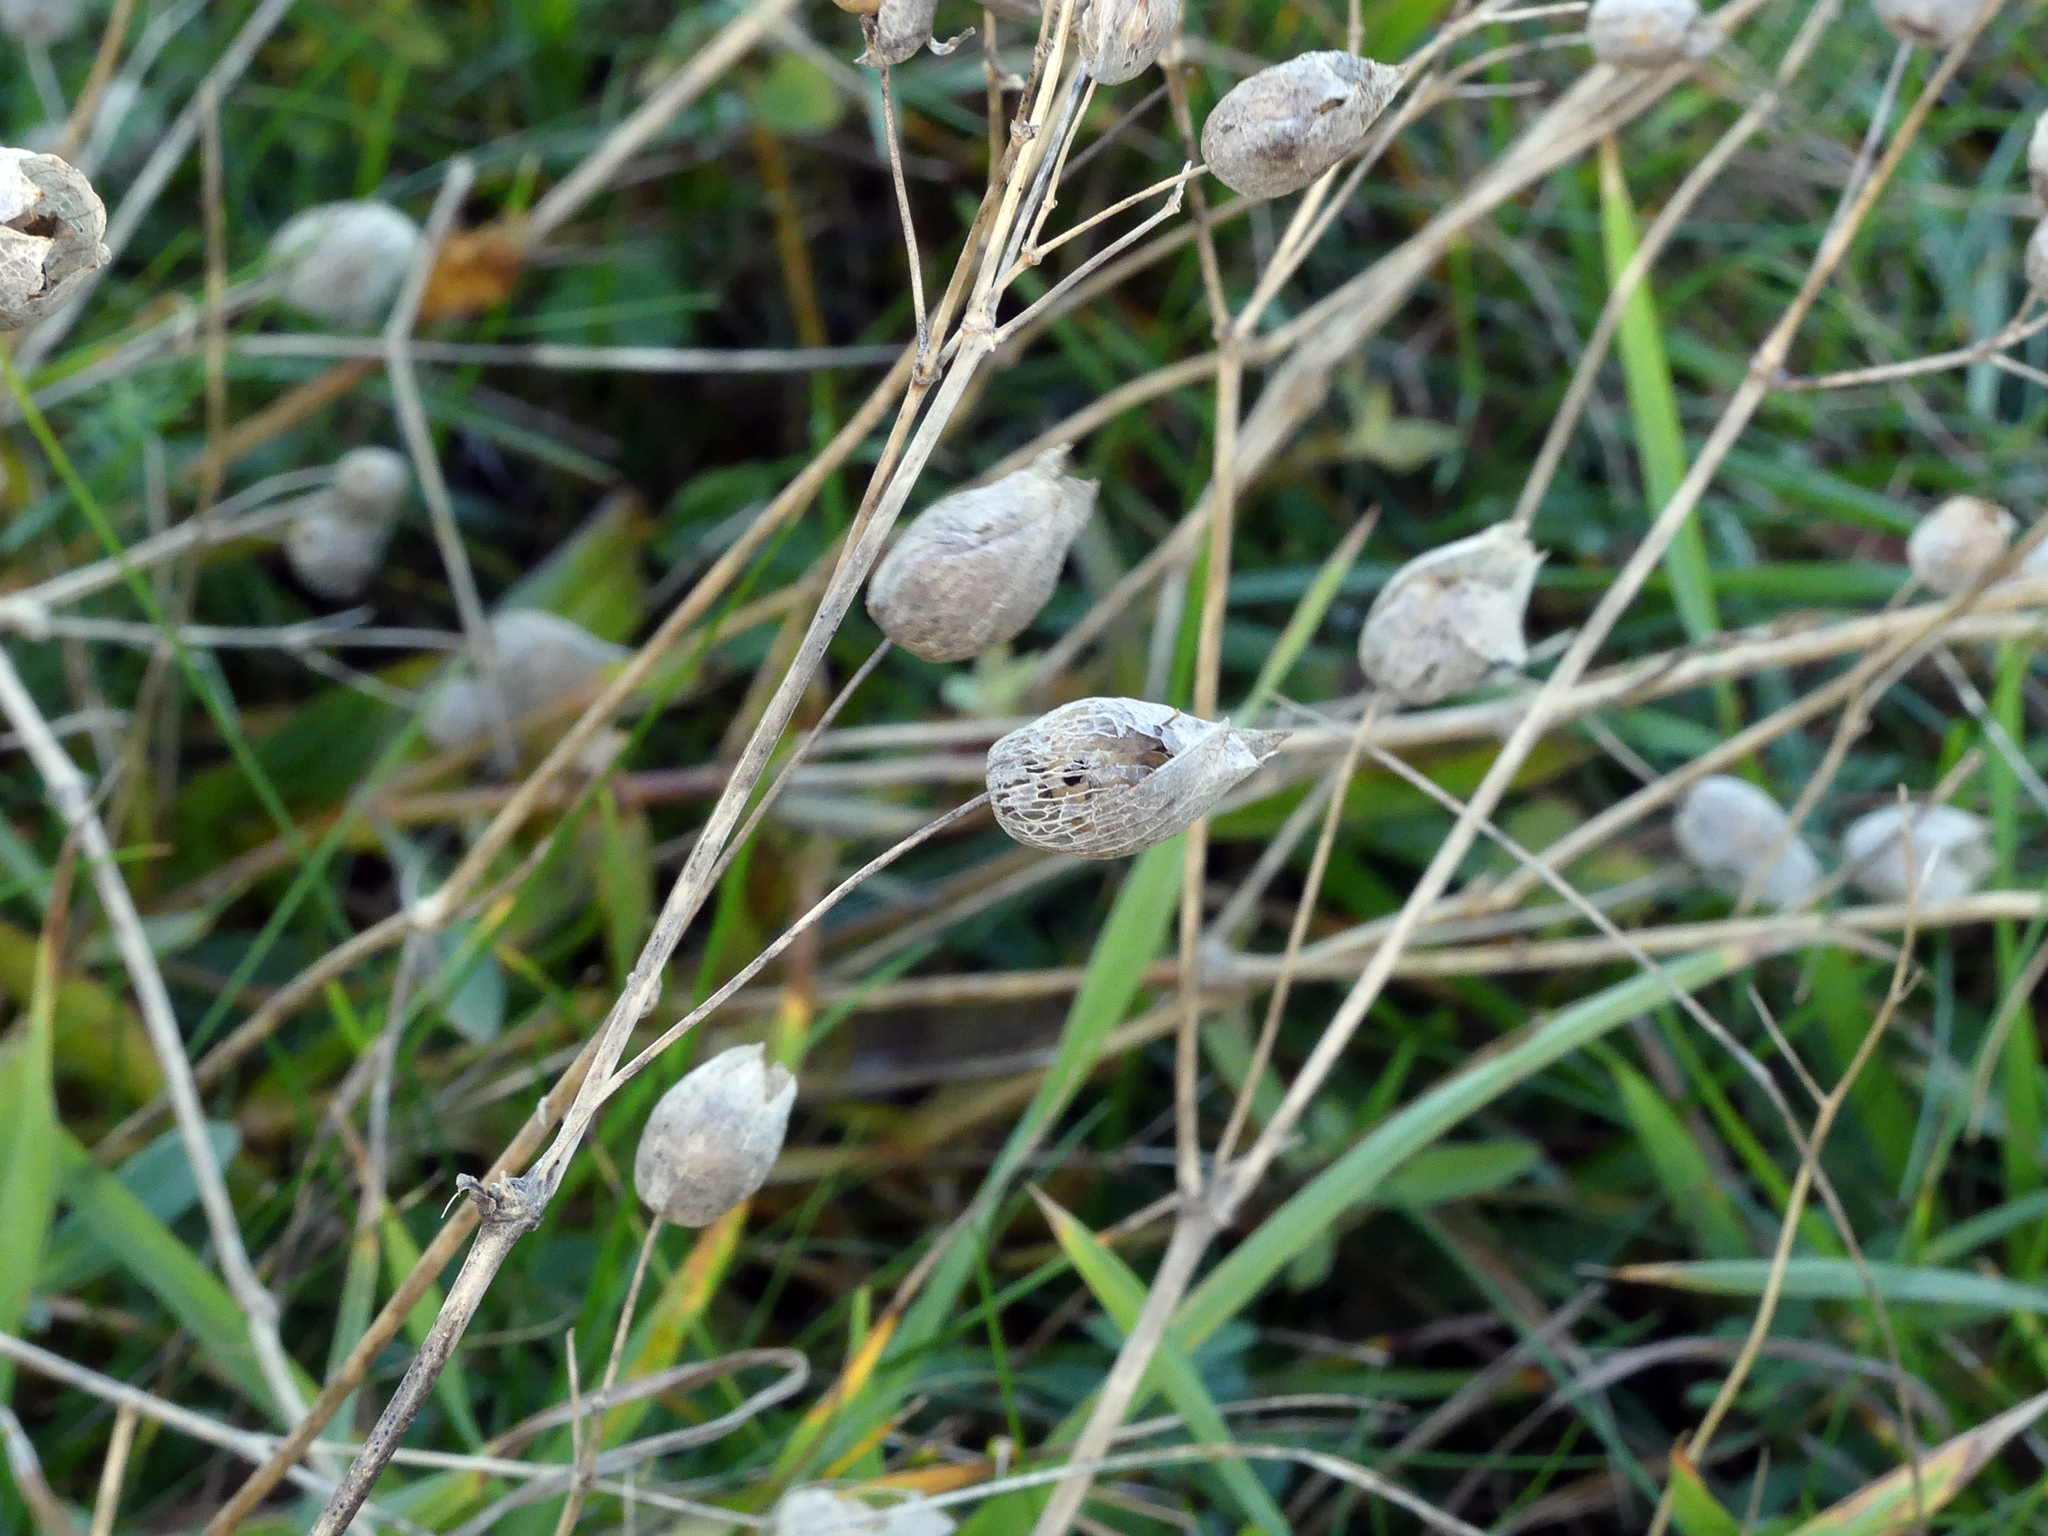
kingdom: Plantae
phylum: Tracheophyta
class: Magnoliopsida
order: Caryophyllales
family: Caryophyllaceae
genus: Silene
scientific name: Silene vulgaris
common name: Bladder campion
